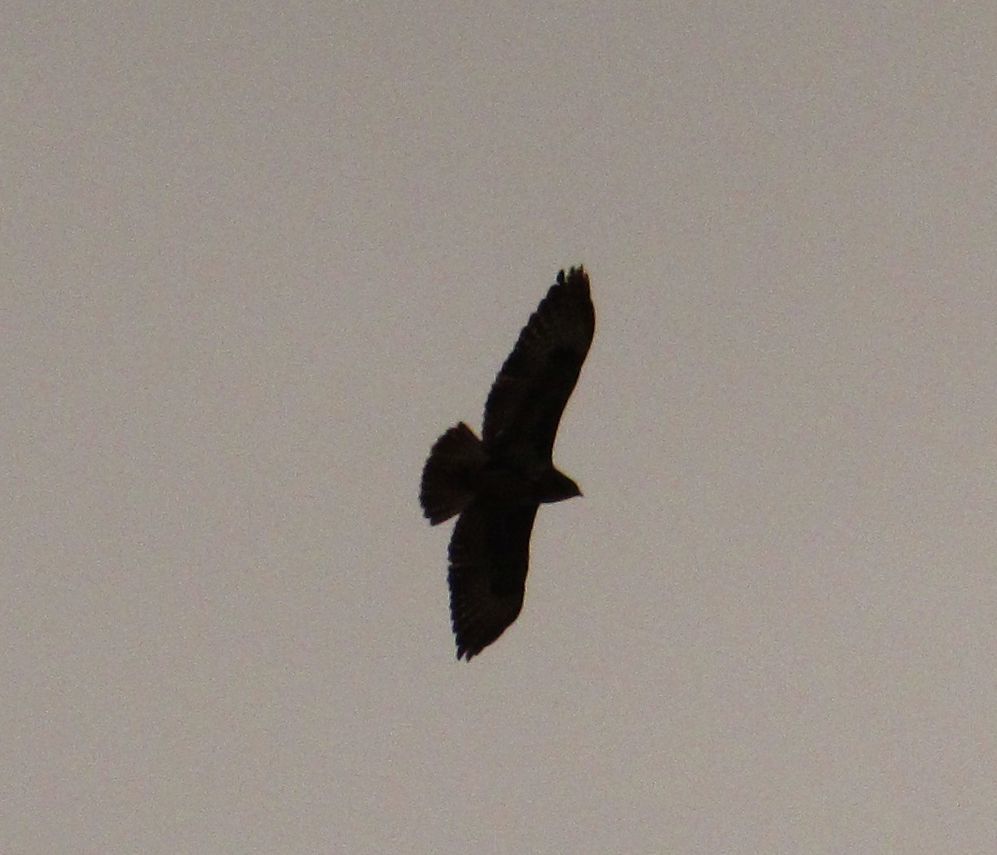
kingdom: Animalia
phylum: Chordata
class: Aves
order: Accipitriformes
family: Accipitridae
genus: Buteo
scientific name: Buteo buteo
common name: Common buzzard
